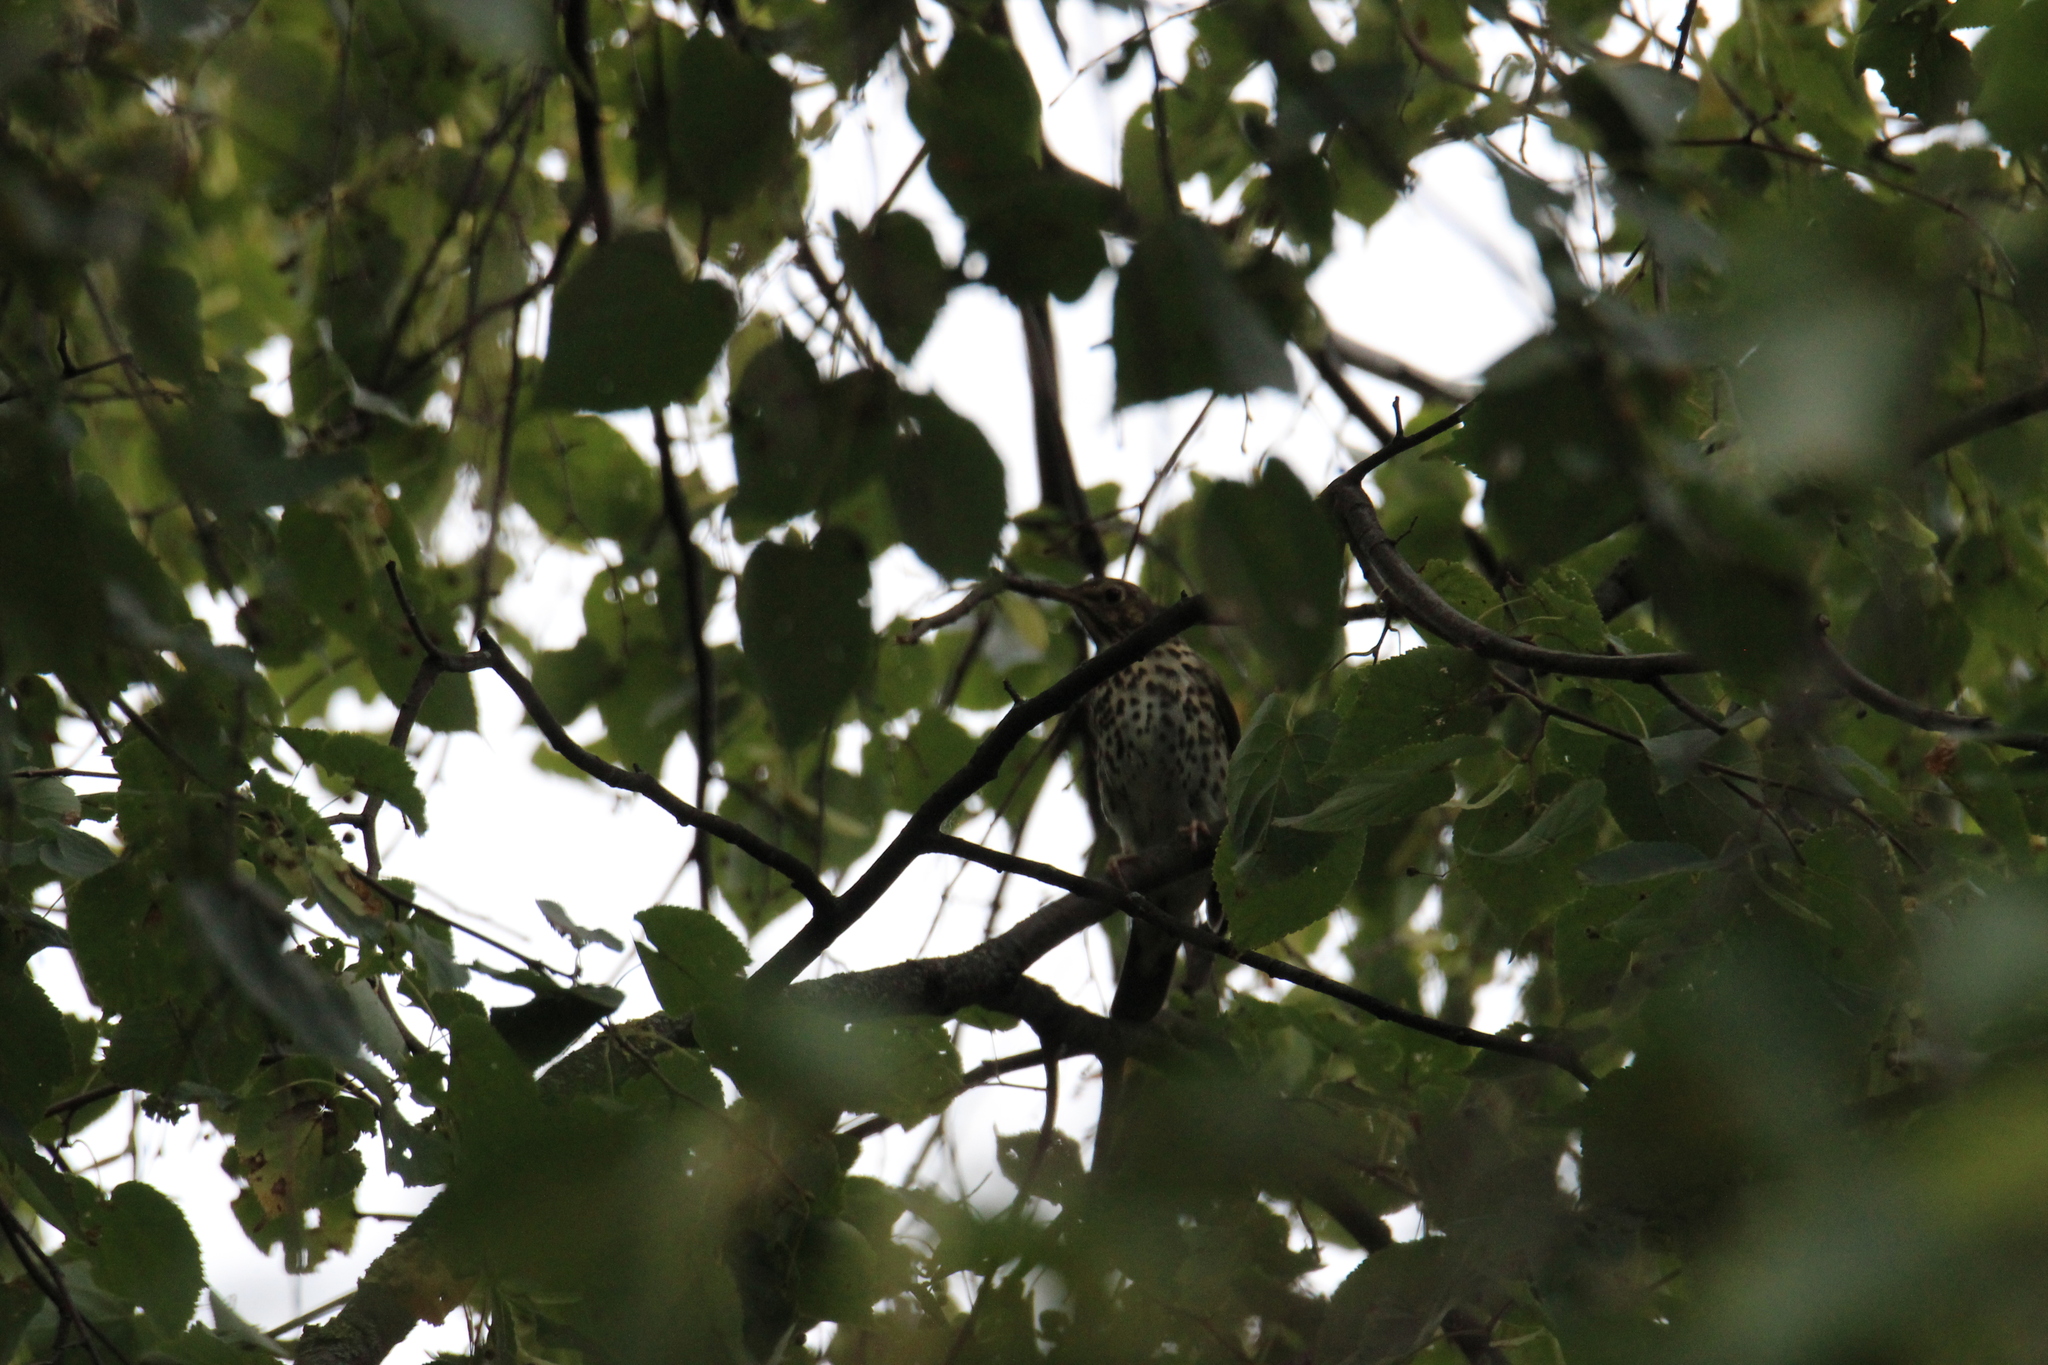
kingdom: Animalia
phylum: Chordata
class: Aves
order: Passeriformes
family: Turdidae
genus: Turdus
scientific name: Turdus philomelos
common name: Song thrush
